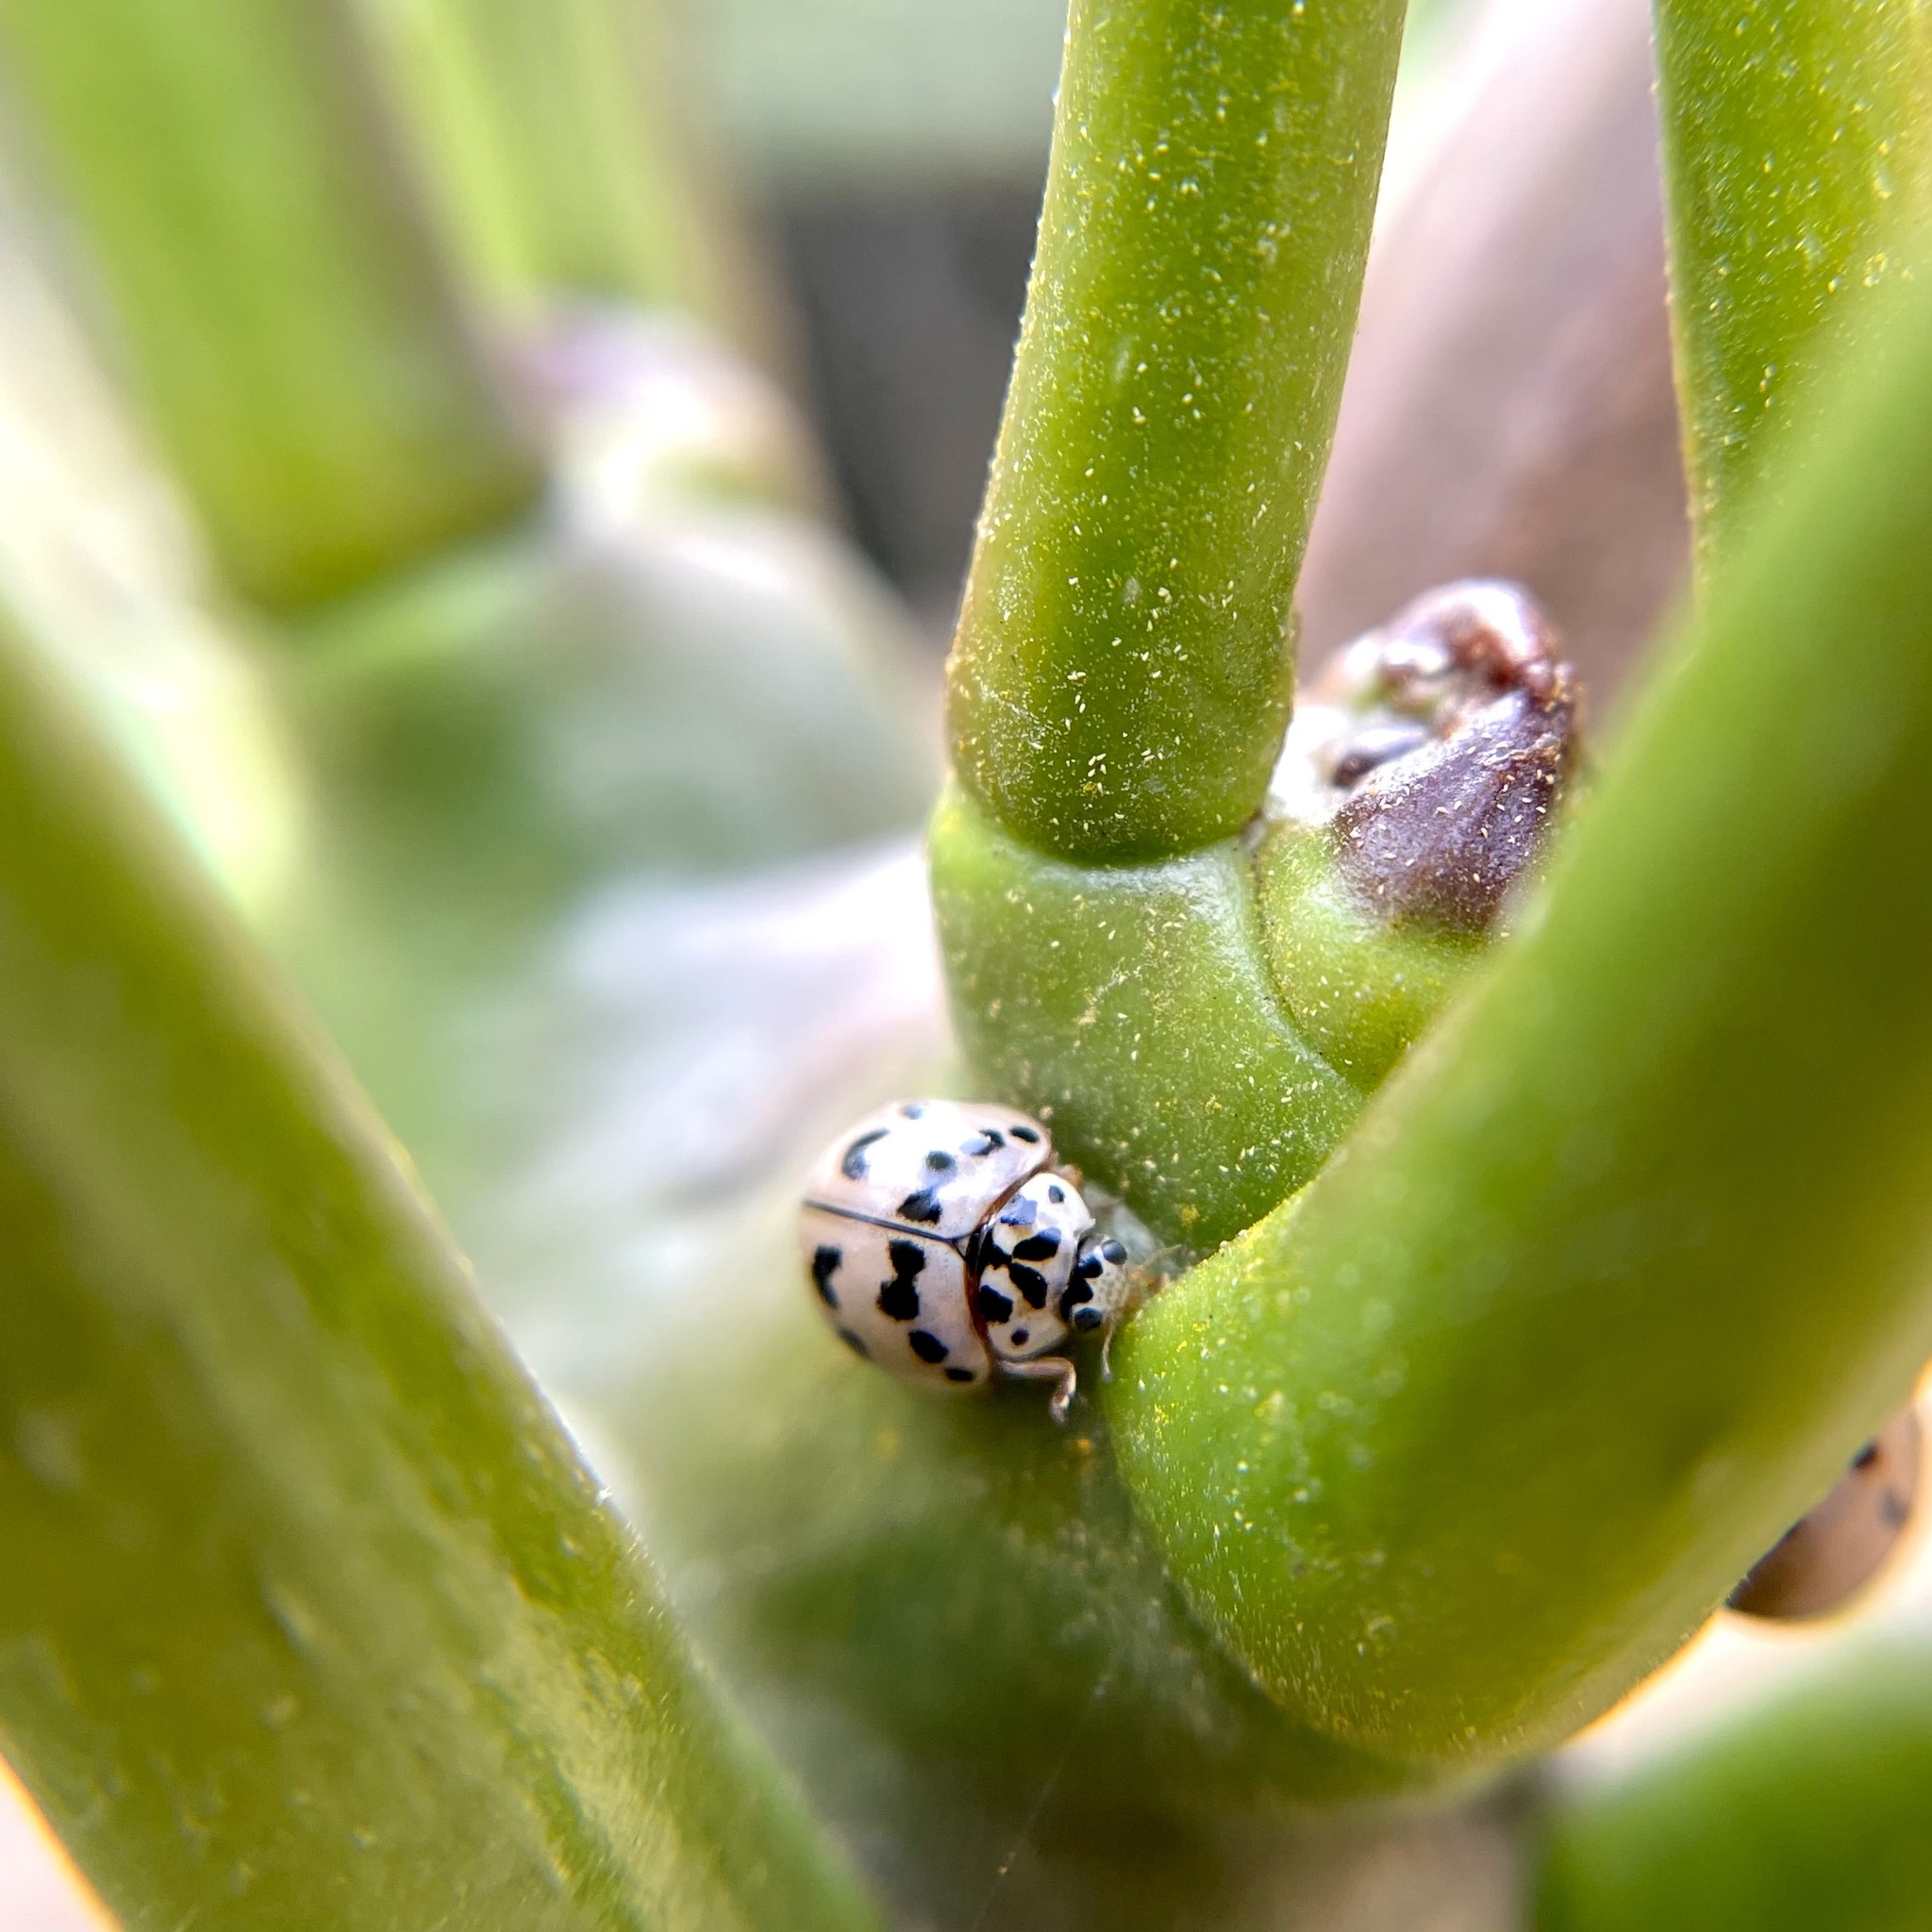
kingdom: Animalia
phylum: Arthropoda
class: Insecta
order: Coleoptera
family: Coccinellidae
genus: Olla
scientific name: Olla v-nigrum
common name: Ashy gray lady beetle
